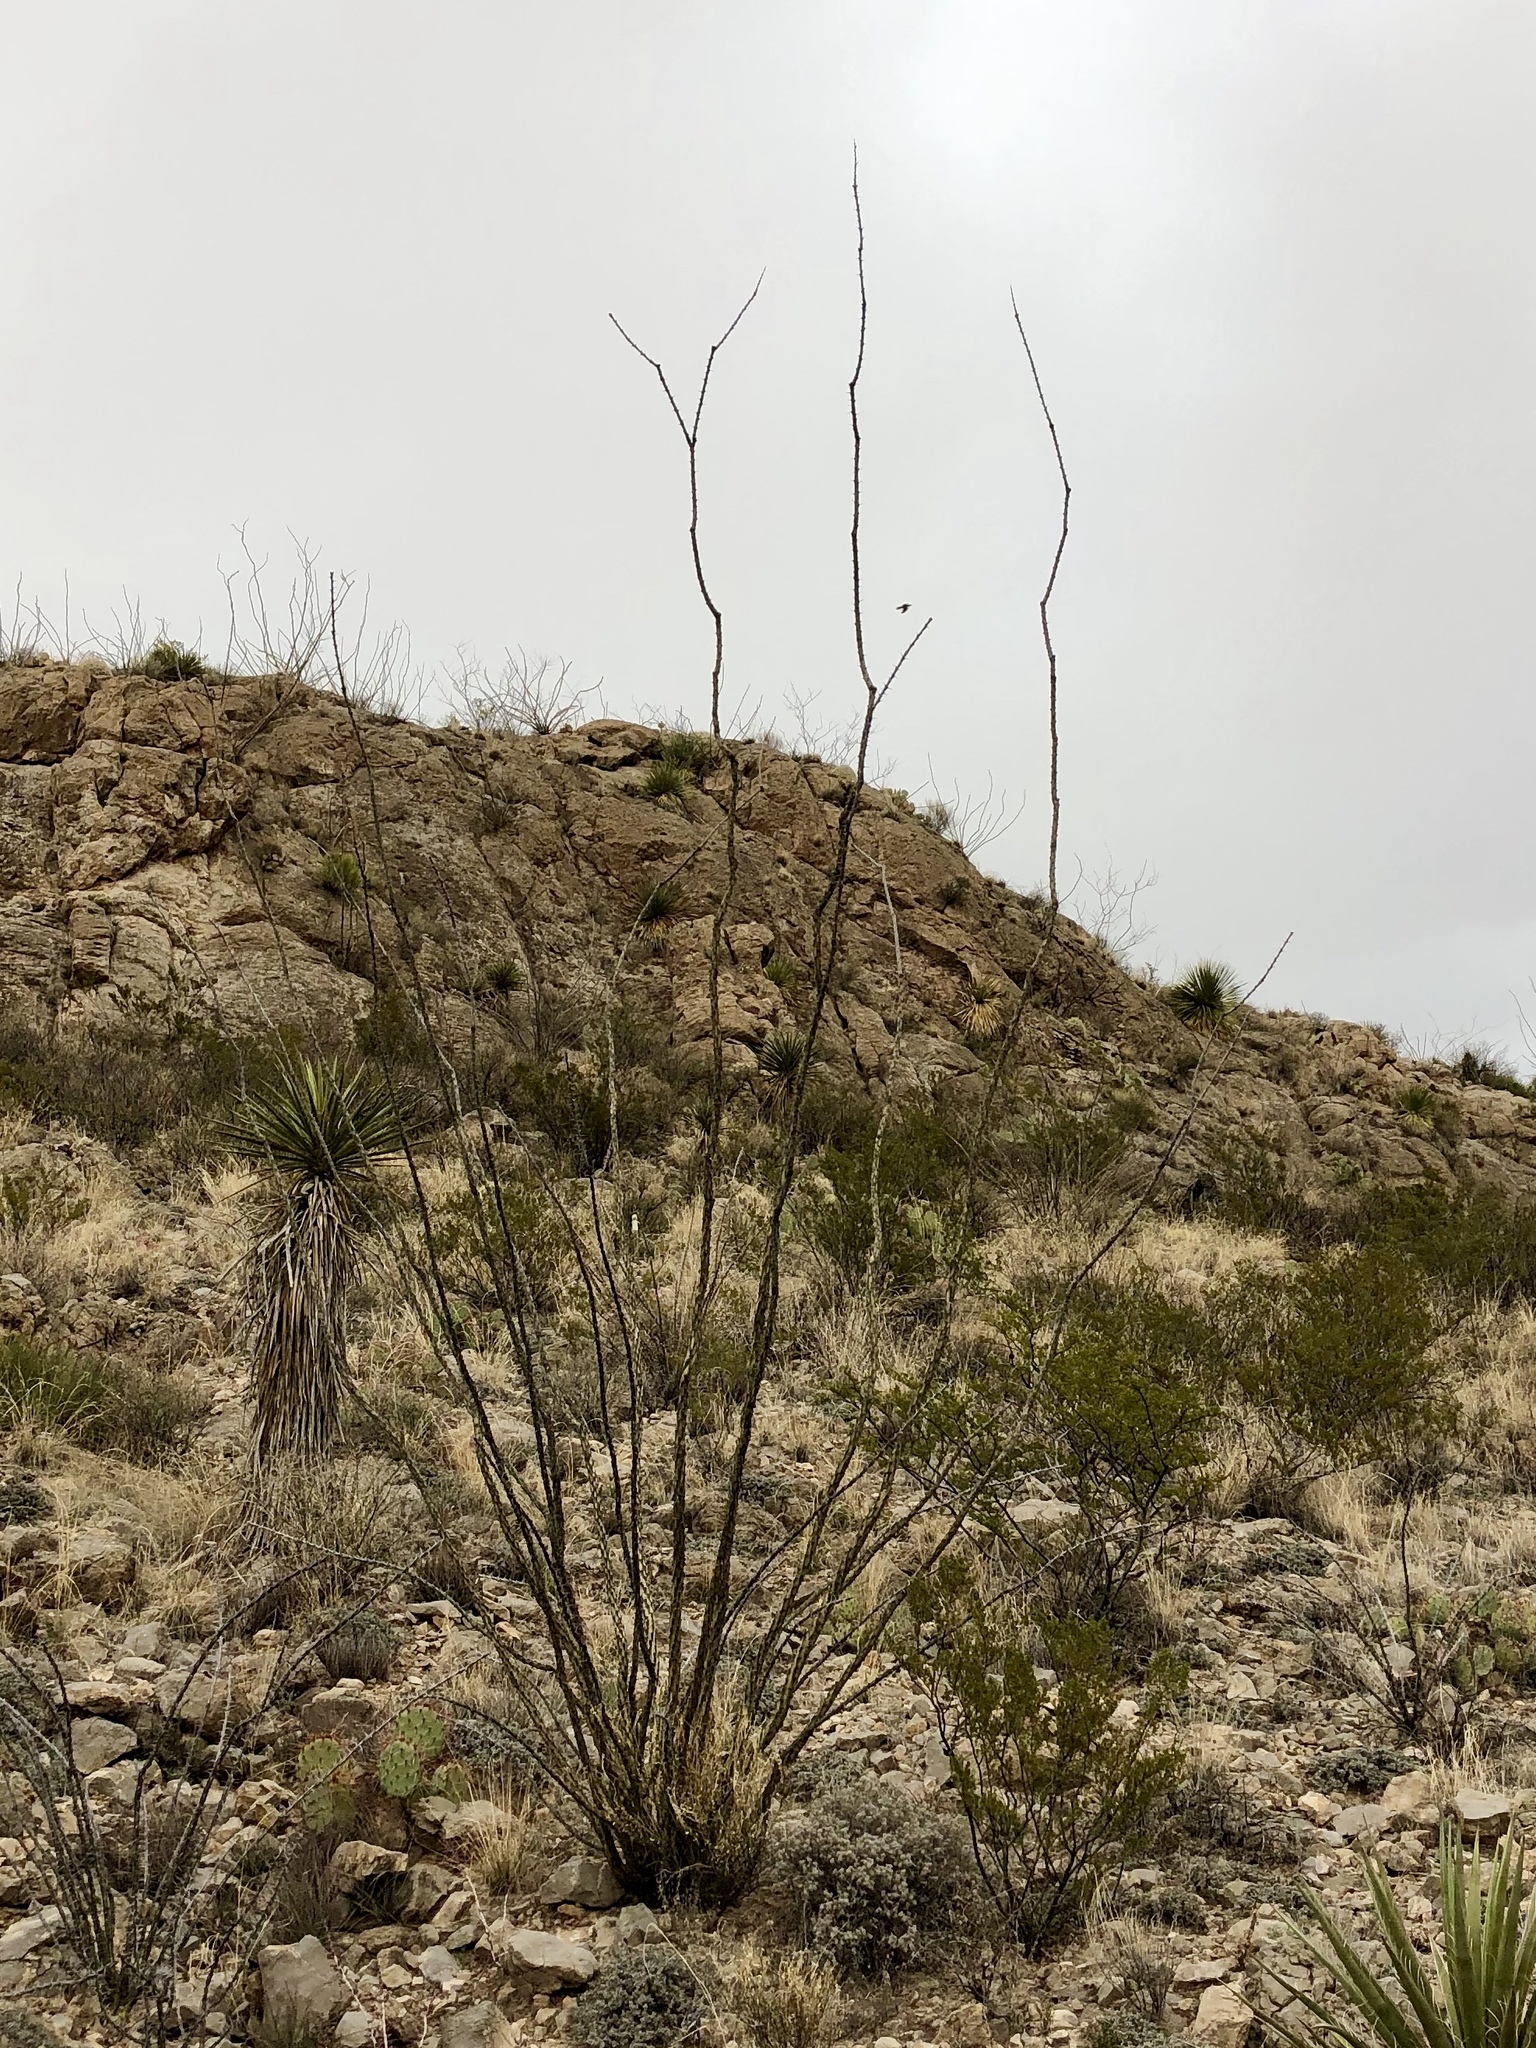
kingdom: Plantae
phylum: Tracheophyta
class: Magnoliopsida
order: Ericales
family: Fouquieriaceae
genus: Fouquieria
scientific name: Fouquieria splendens
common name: Vine-cactus
